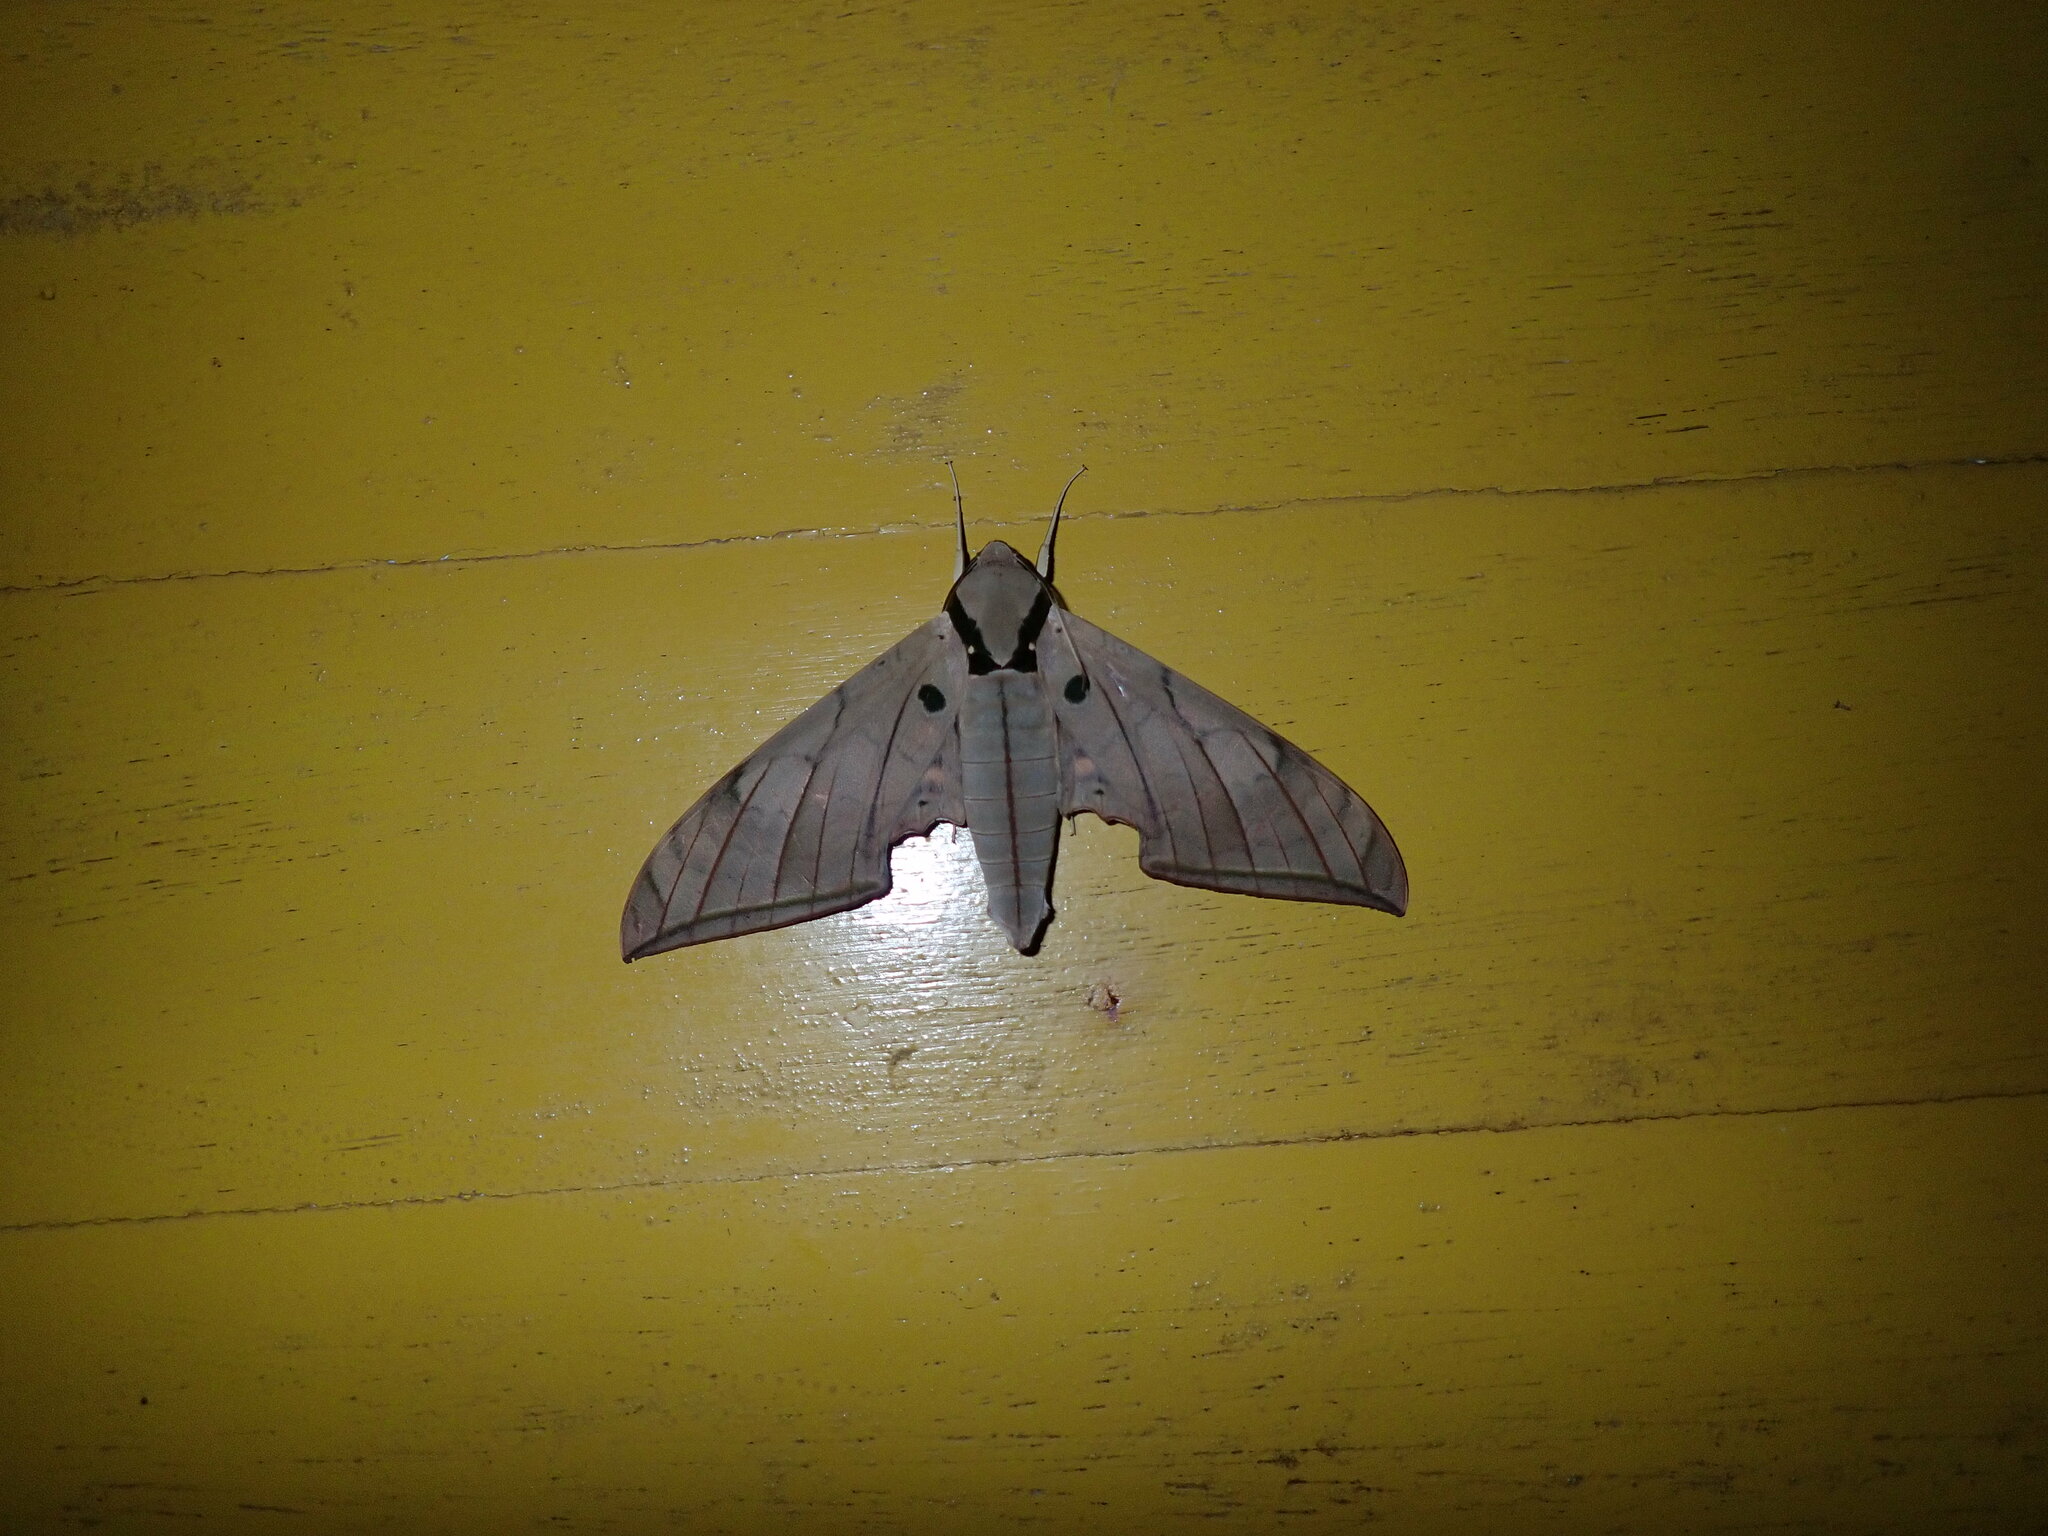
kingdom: Animalia
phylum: Arthropoda
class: Insecta
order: Lepidoptera
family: Sphingidae
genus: Ambulyx
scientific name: Ambulyx substrigilis
